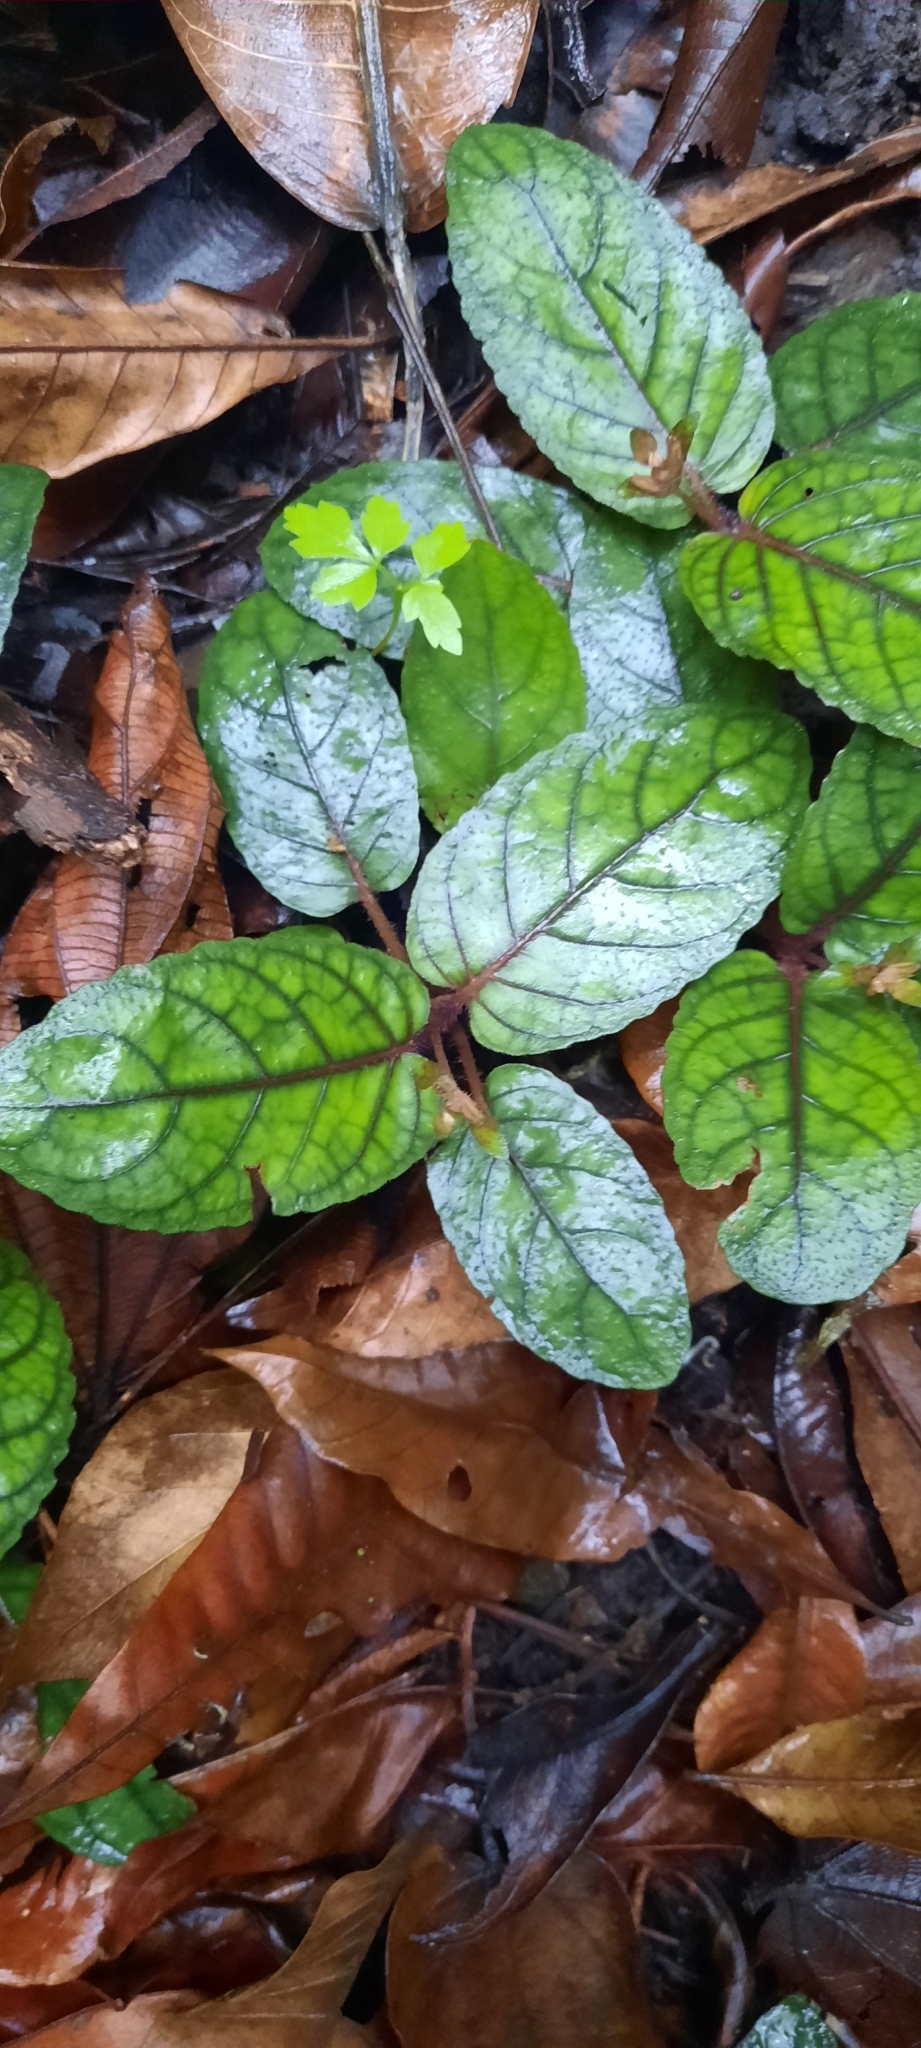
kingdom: Plantae
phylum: Tracheophyta
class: Magnoliopsida
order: Lamiales
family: Acanthaceae
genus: Strobilanthes
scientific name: Strobilanthes reptans
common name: Acanthaceae
